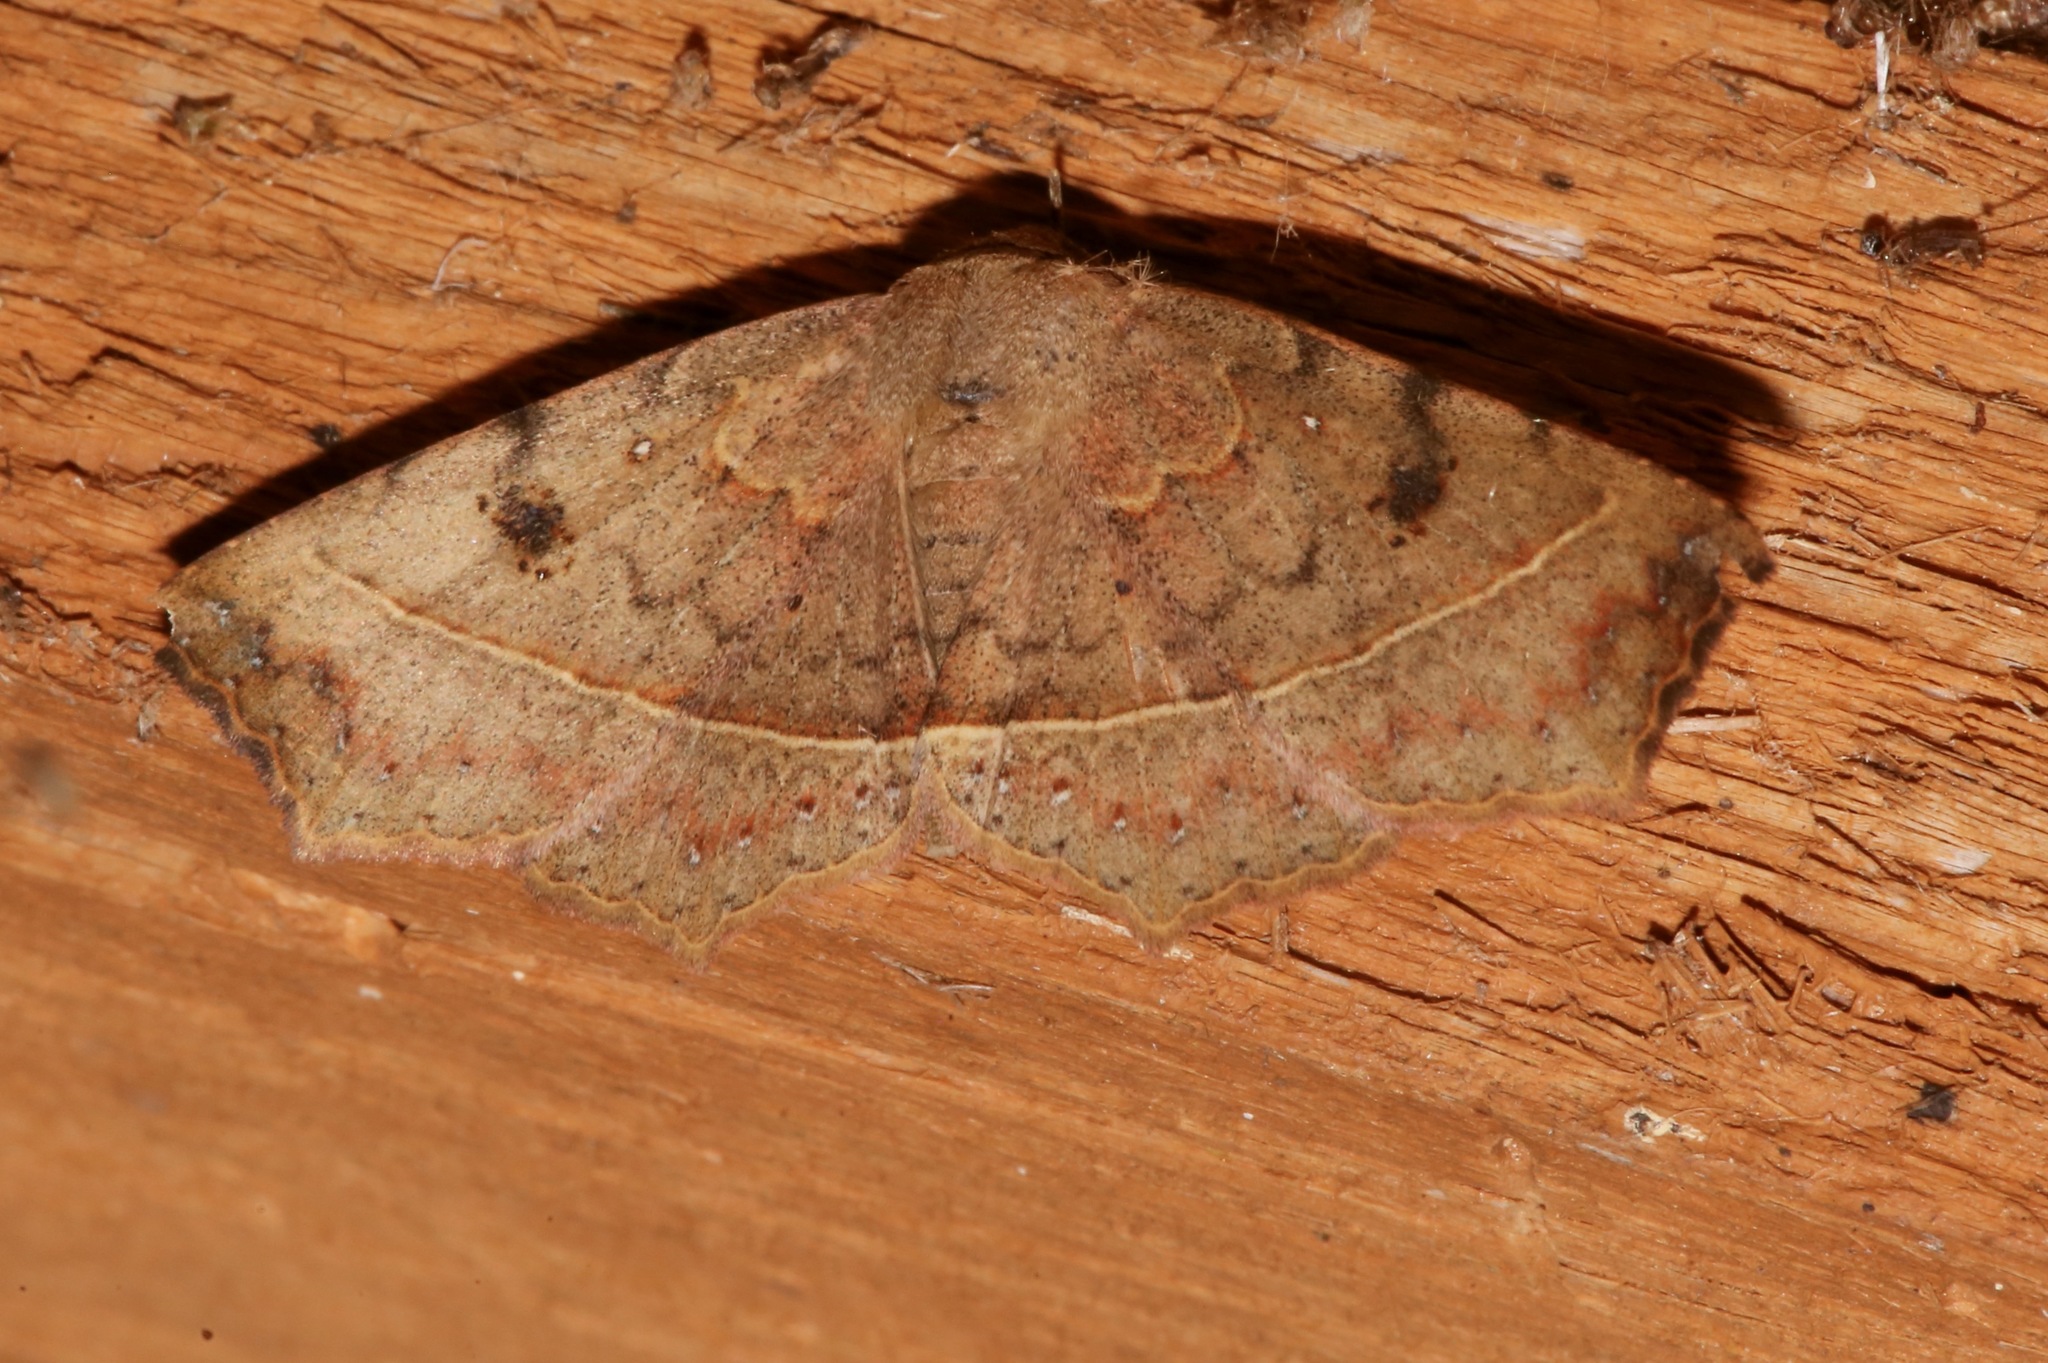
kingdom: Animalia
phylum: Arthropoda
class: Insecta
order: Lepidoptera
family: Erebidae
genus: Metallata
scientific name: Metallata absumens
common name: Brown leaf mimic
